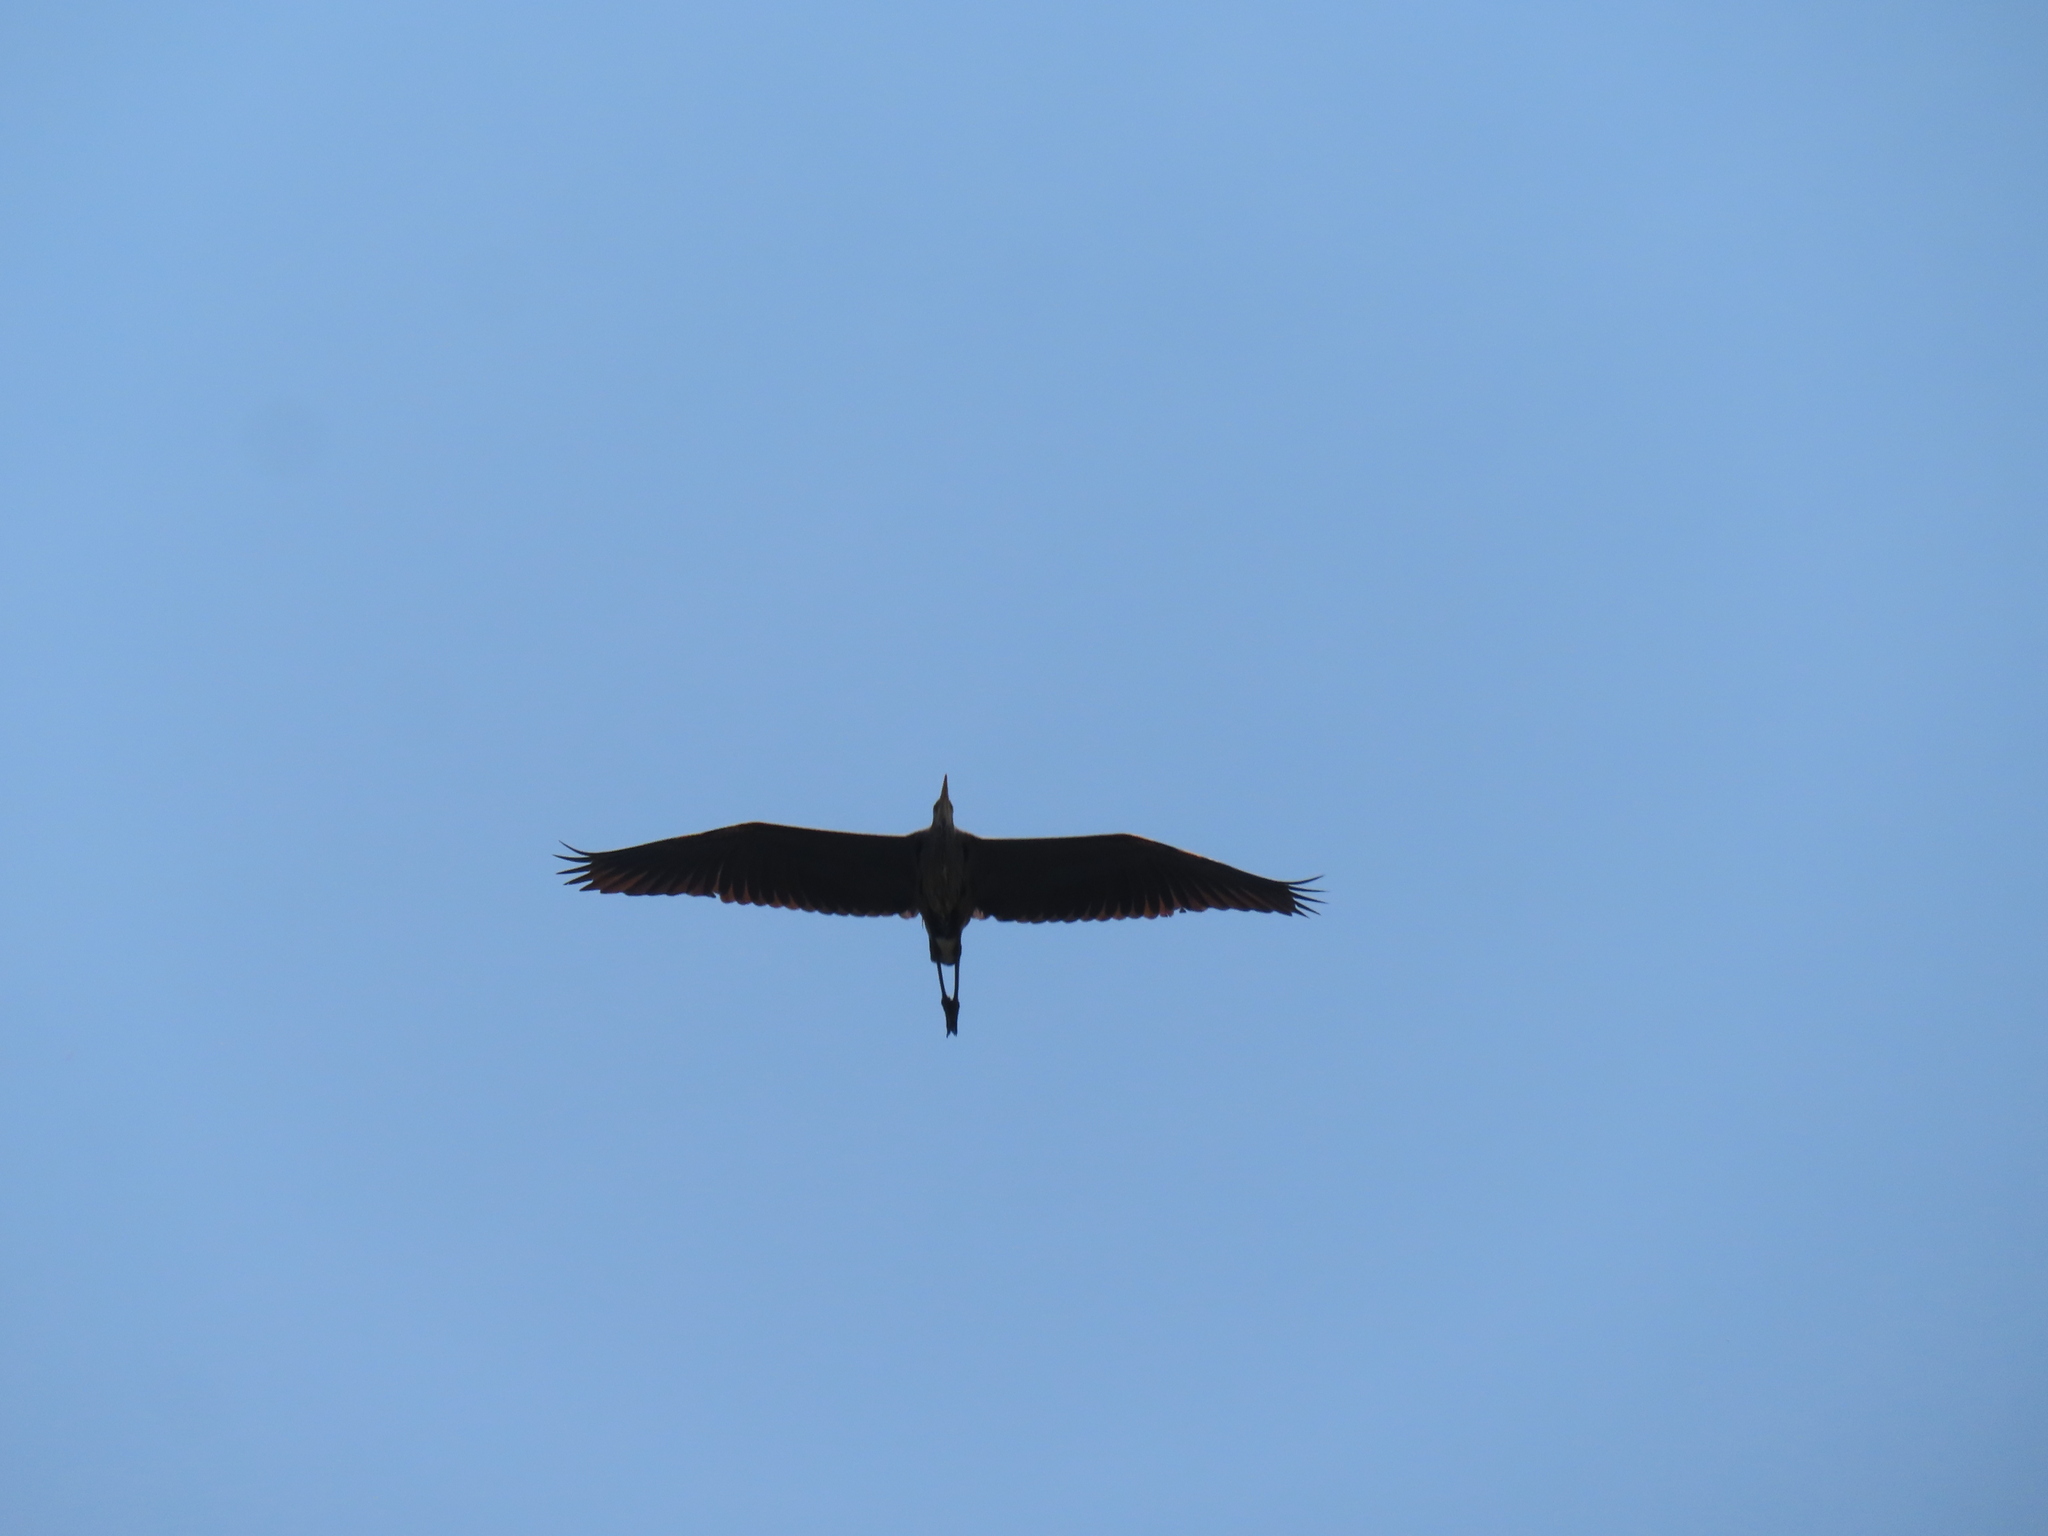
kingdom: Animalia
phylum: Chordata
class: Aves
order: Pelecaniformes
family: Ardeidae
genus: Ardea
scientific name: Ardea herodias
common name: Great blue heron
